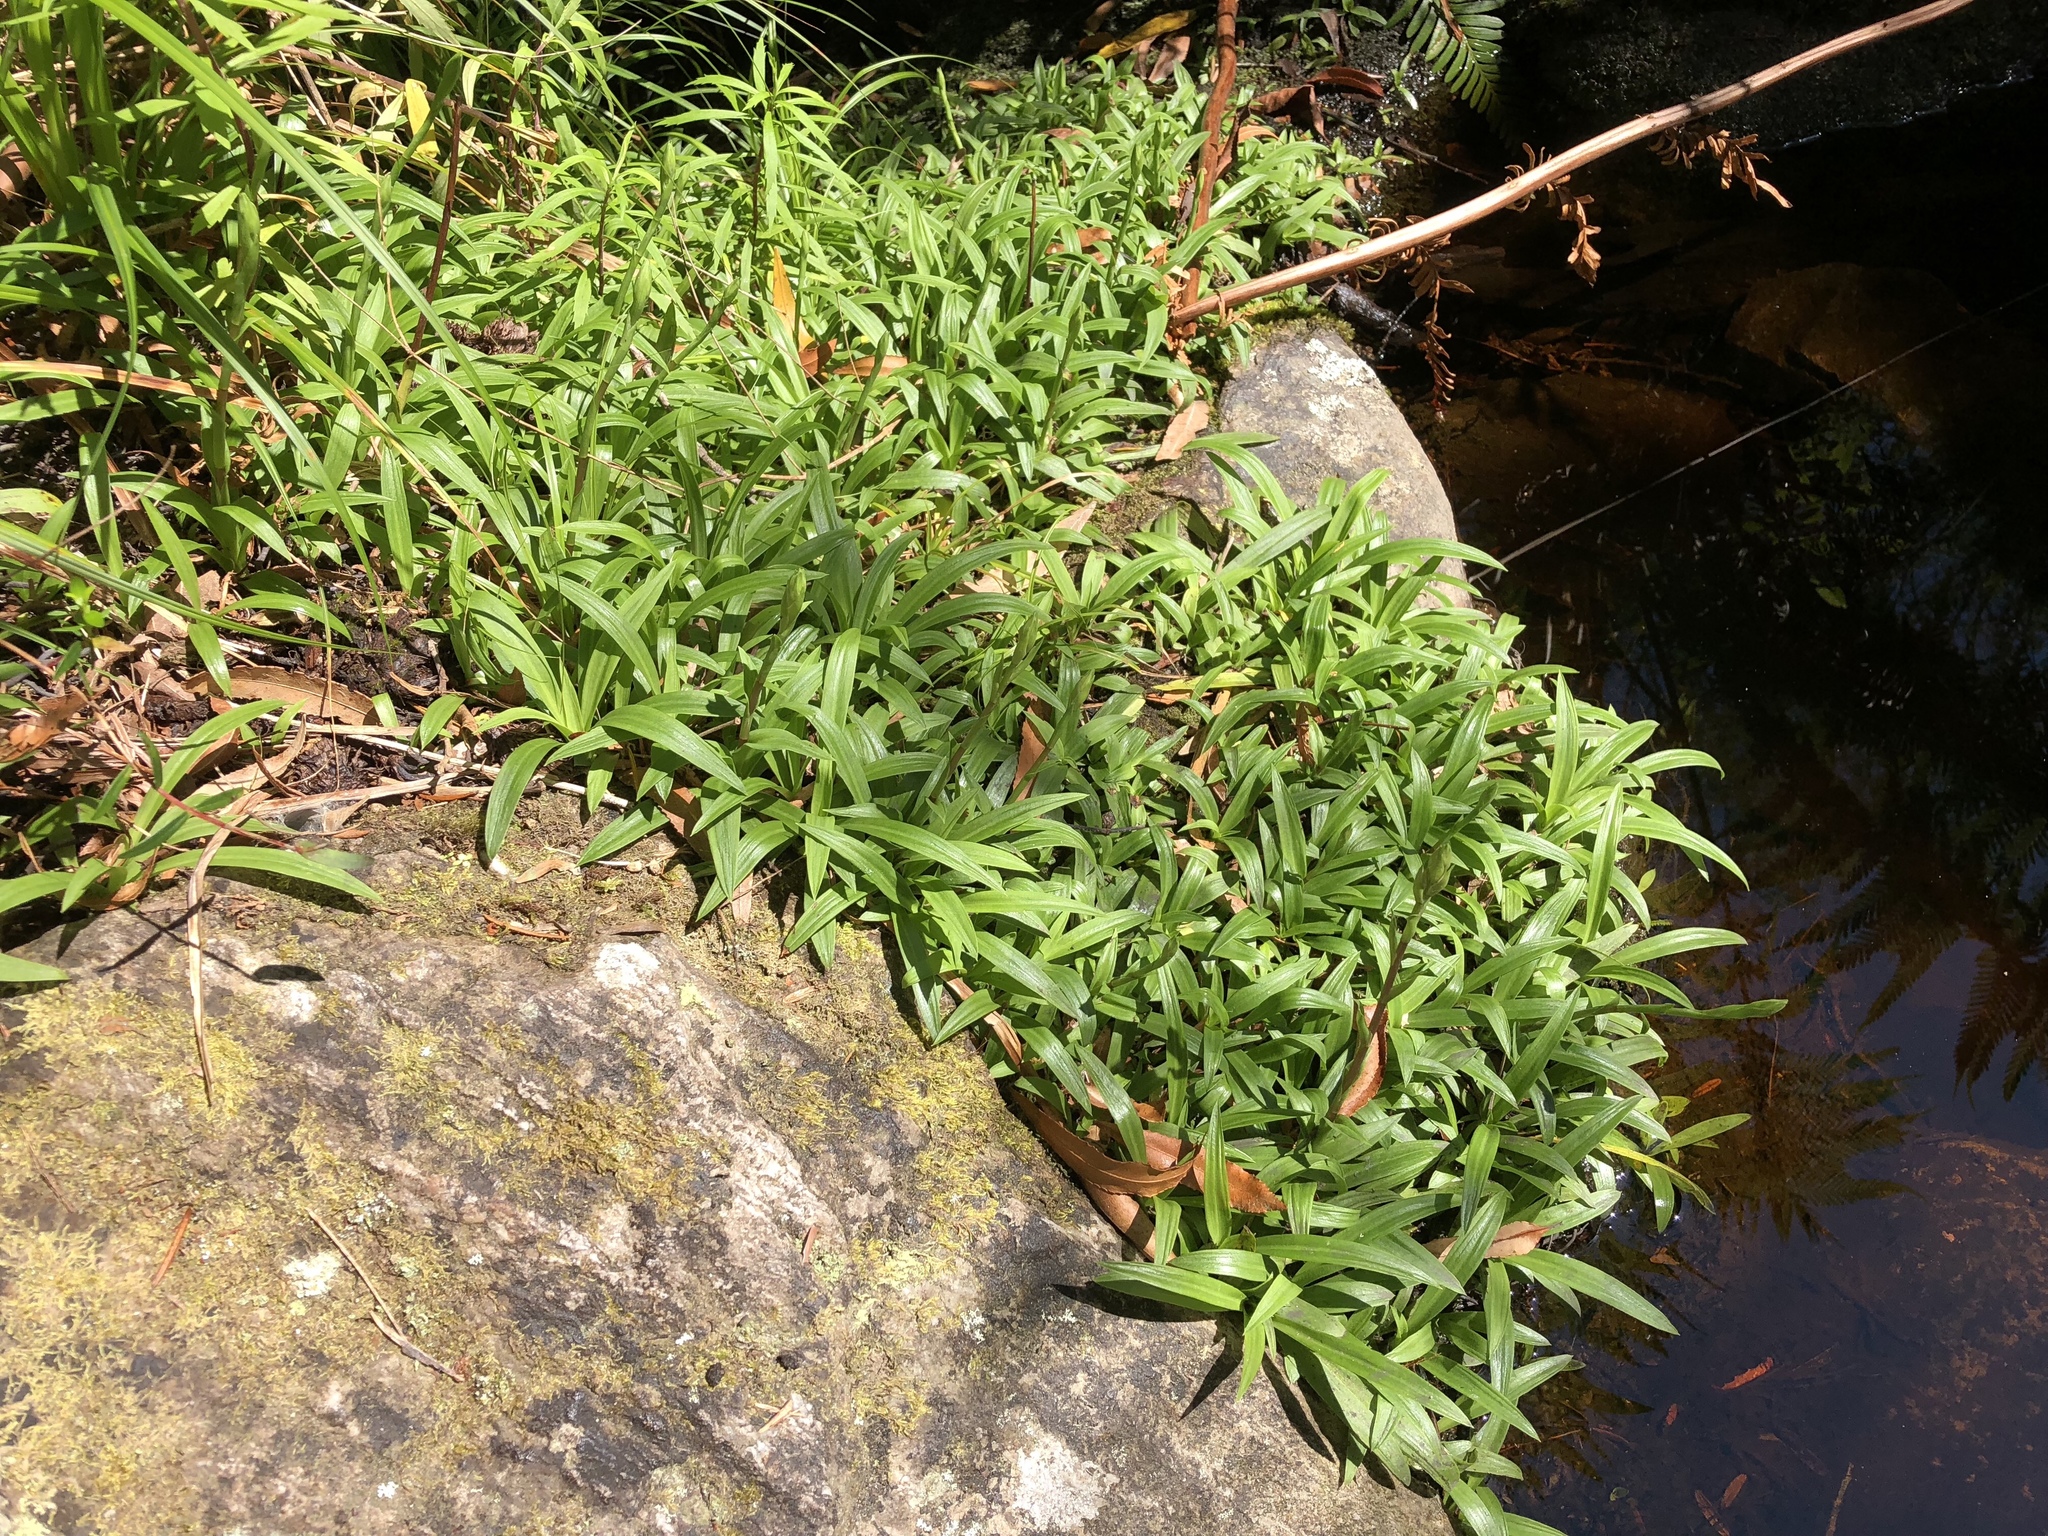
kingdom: Plantae
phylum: Tracheophyta
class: Liliopsida
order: Asparagales
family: Orchidaceae
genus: Disa
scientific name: Disa tripetaloides
